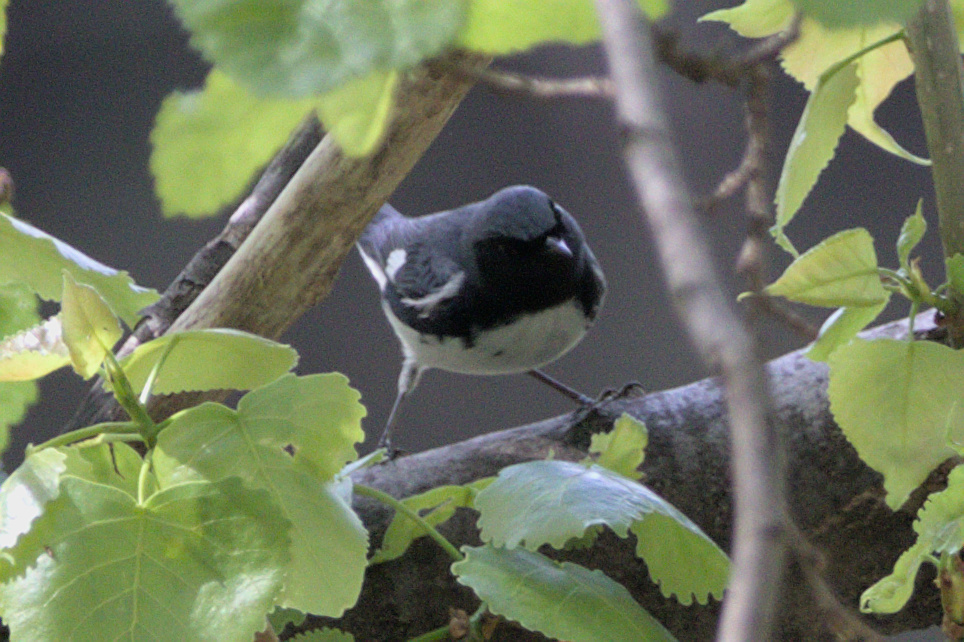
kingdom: Animalia
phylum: Chordata
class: Aves
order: Passeriformes
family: Parulidae
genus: Setophaga
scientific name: Setophaga caerulescens
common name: Black-throated blue warbler
